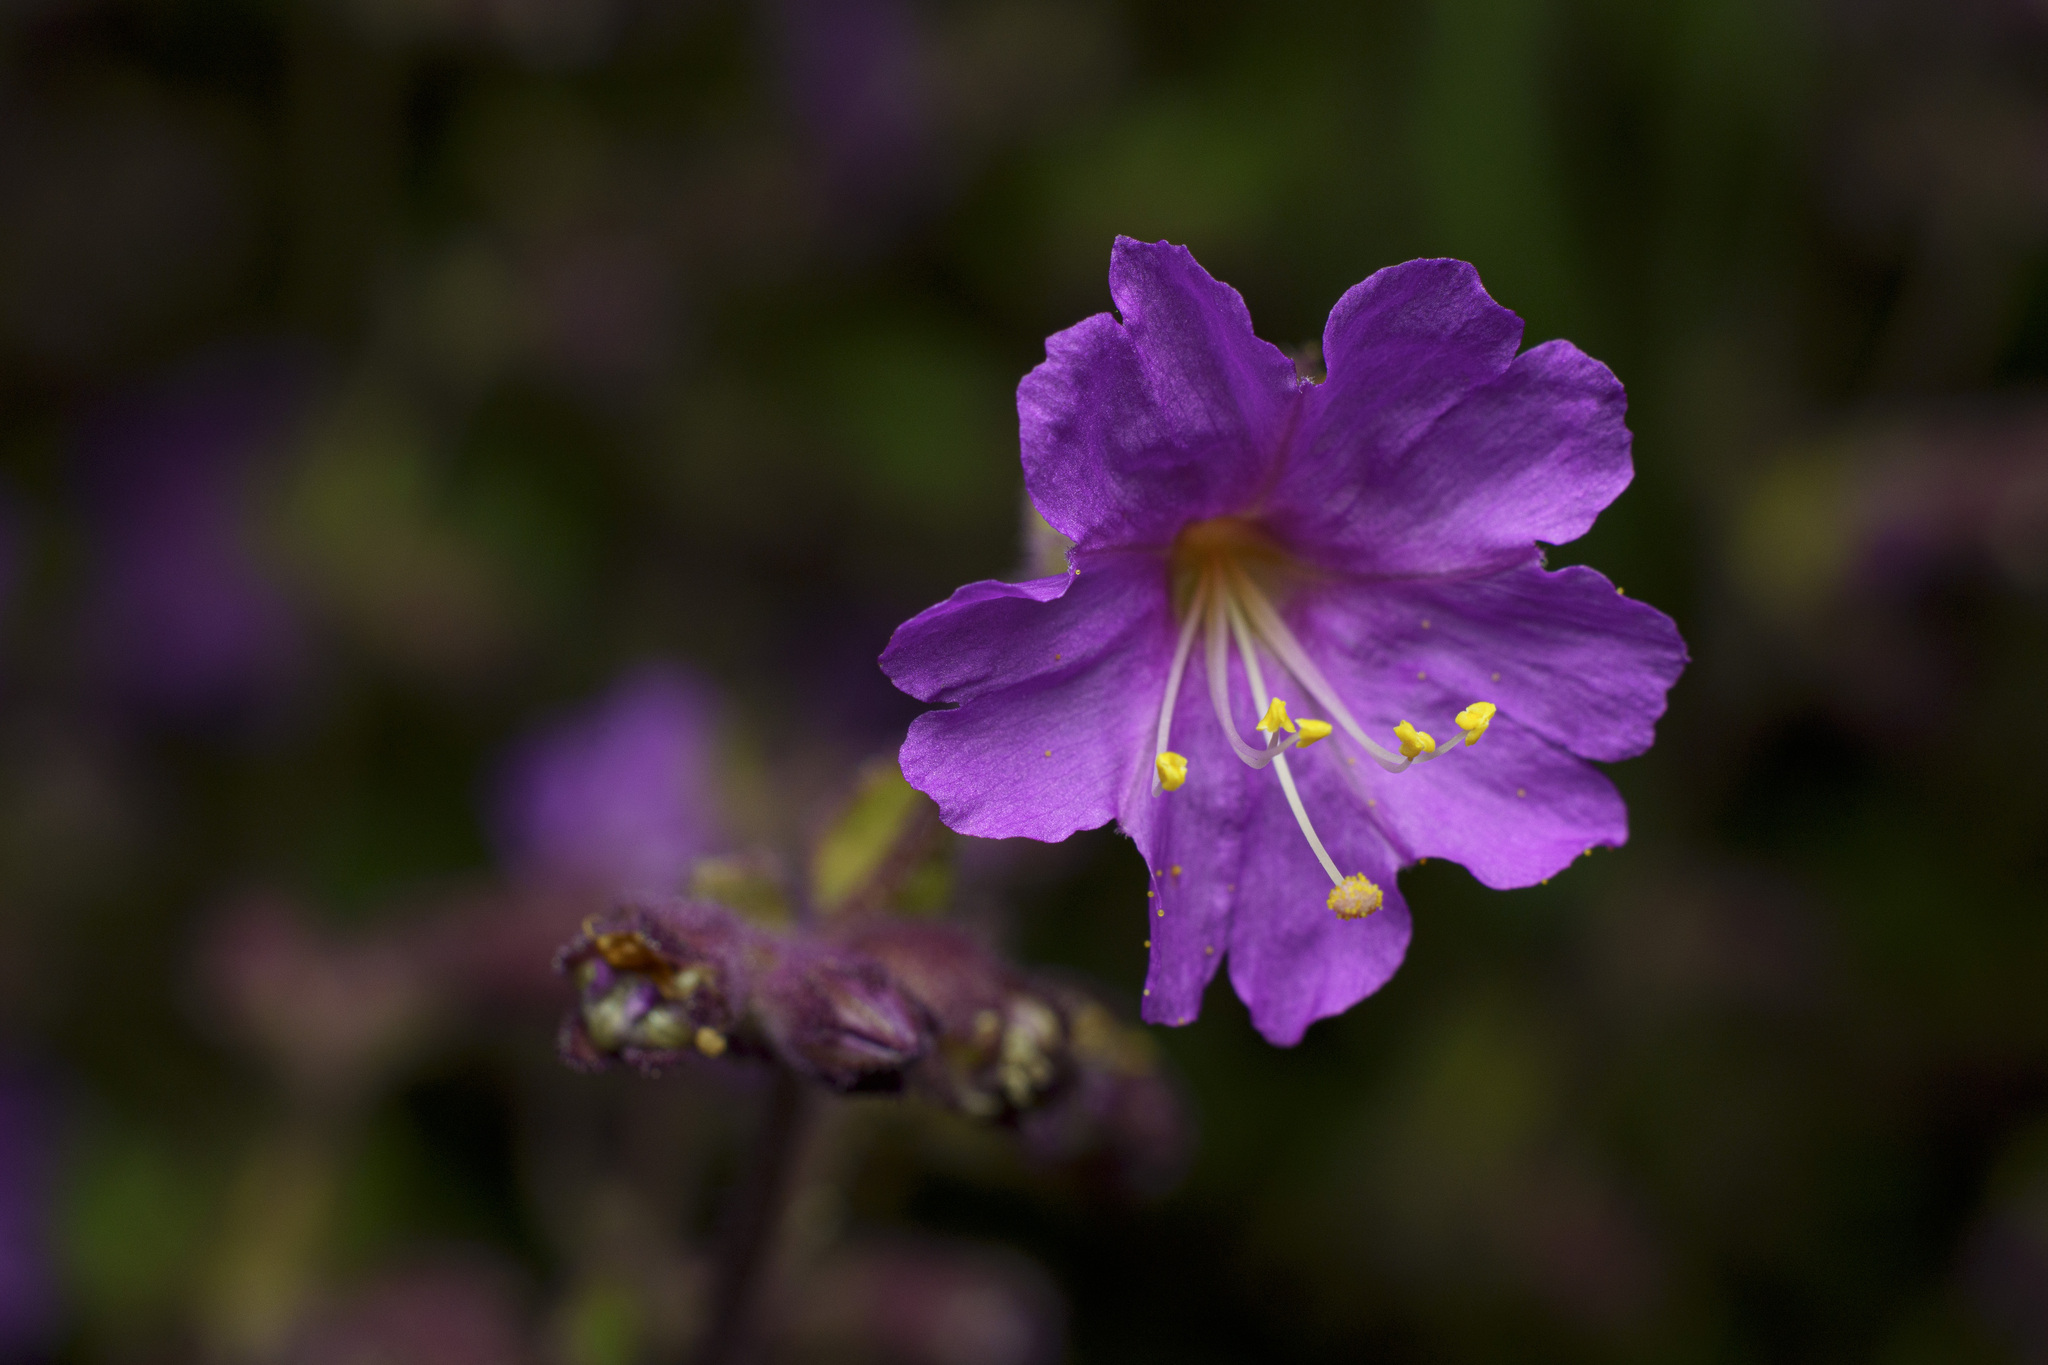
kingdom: Plantae
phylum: Tracheophyta
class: Magnoliopsida
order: Caryophyllales
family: Nyctaginaceae
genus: Mirabilis
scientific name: Mirabilis laevis
